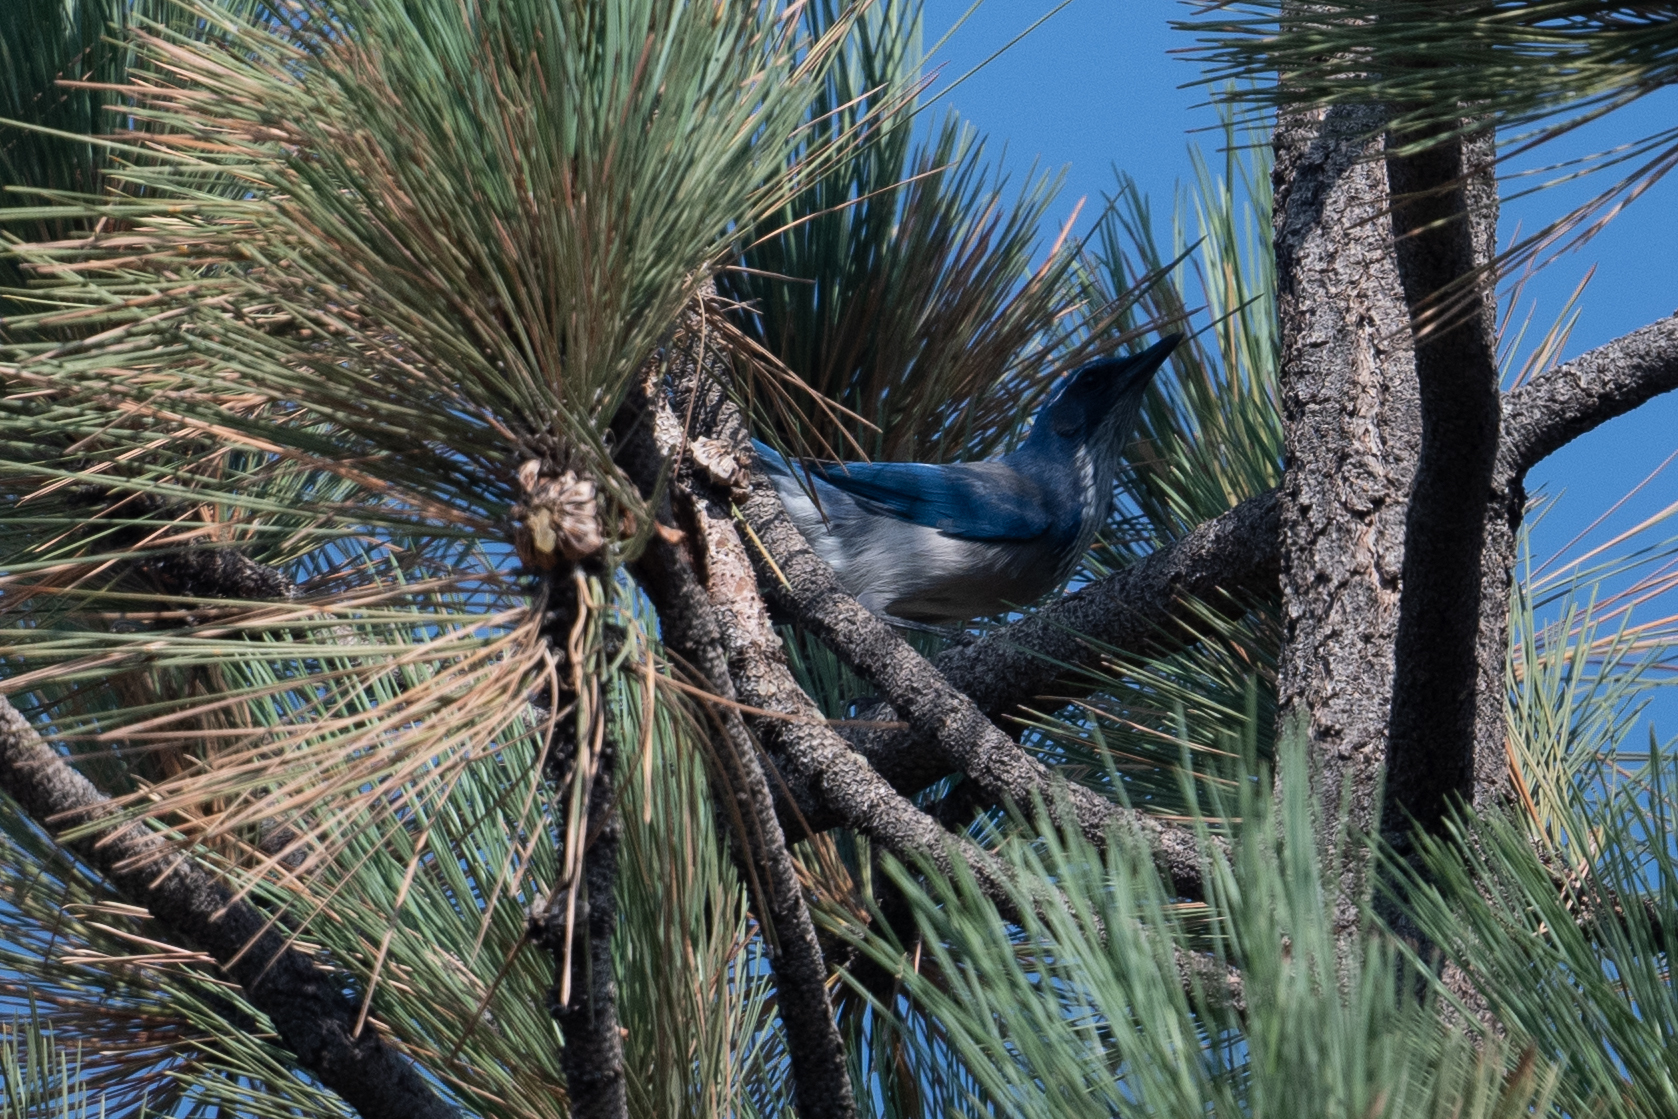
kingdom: Animalia
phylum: Chordata
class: Aves
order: Passeriformes
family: Corvidae
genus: Aphelocoma
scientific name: Aphelocoma californica
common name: California scrub-jay
